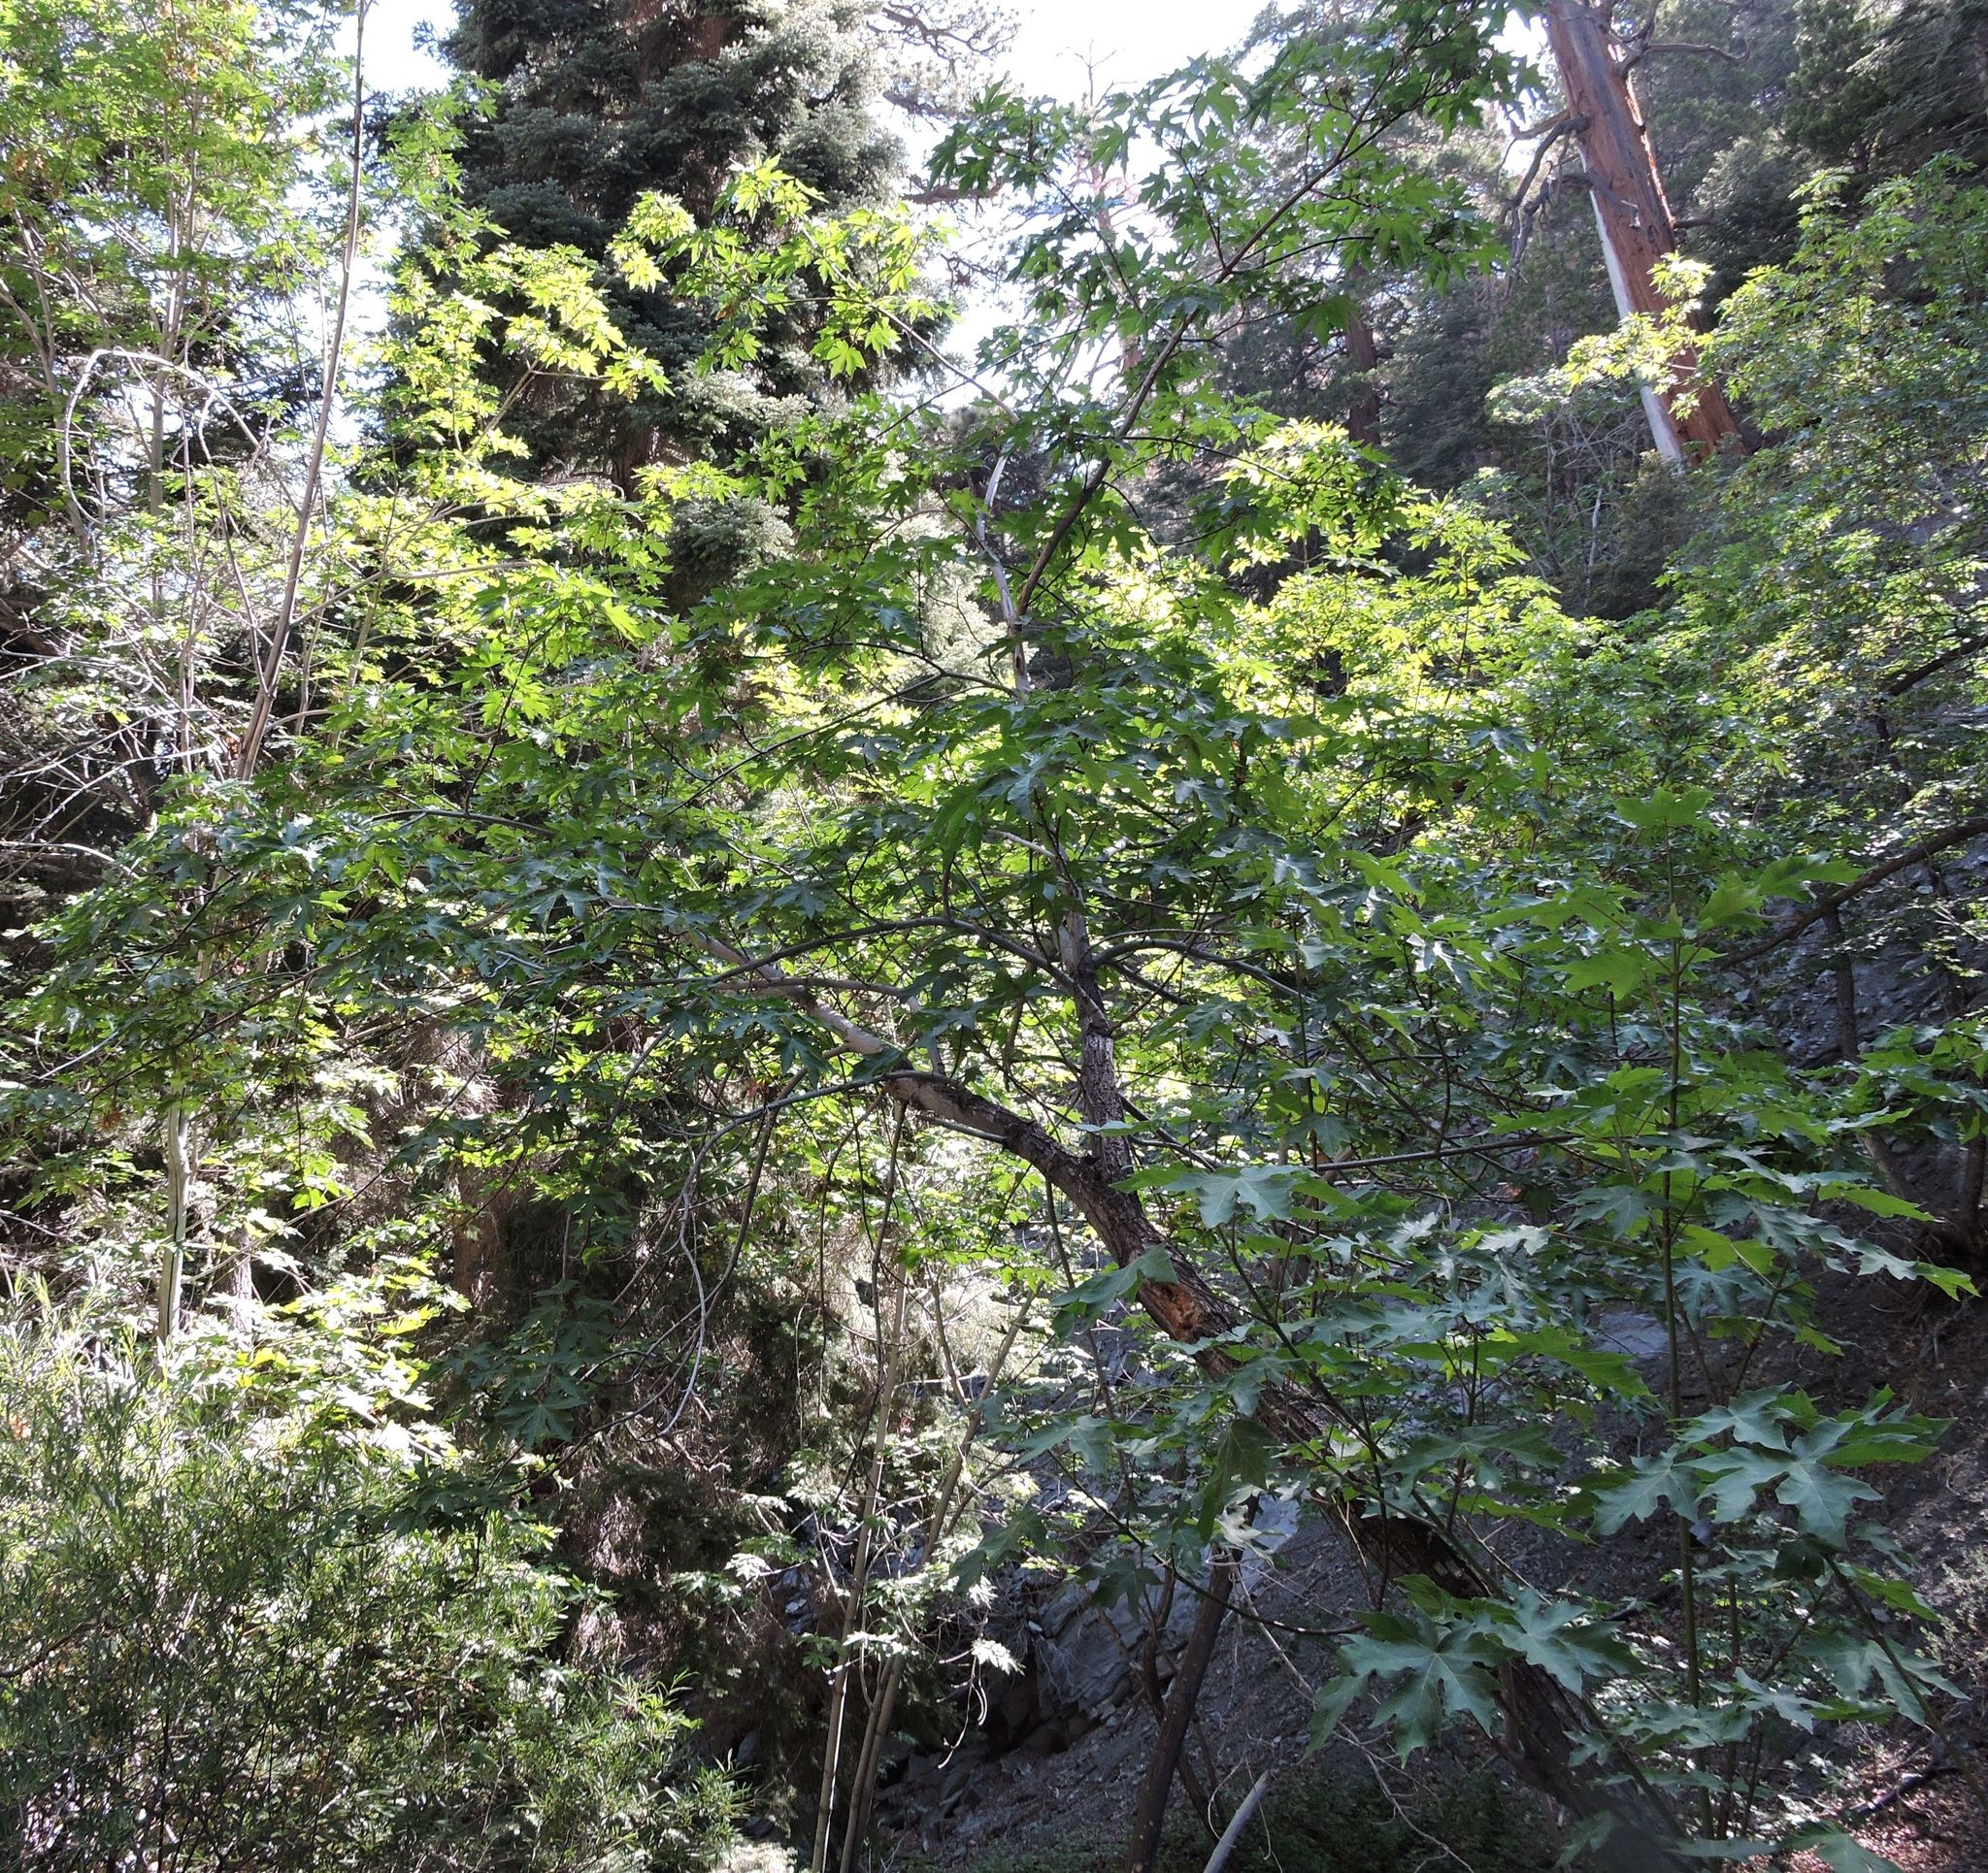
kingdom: Plantae
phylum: Tracheophyta
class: Magnoliopsida
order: Sapindales
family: Sapindaceae
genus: Acer
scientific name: Acer macrophyllum
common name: Oregon maple
